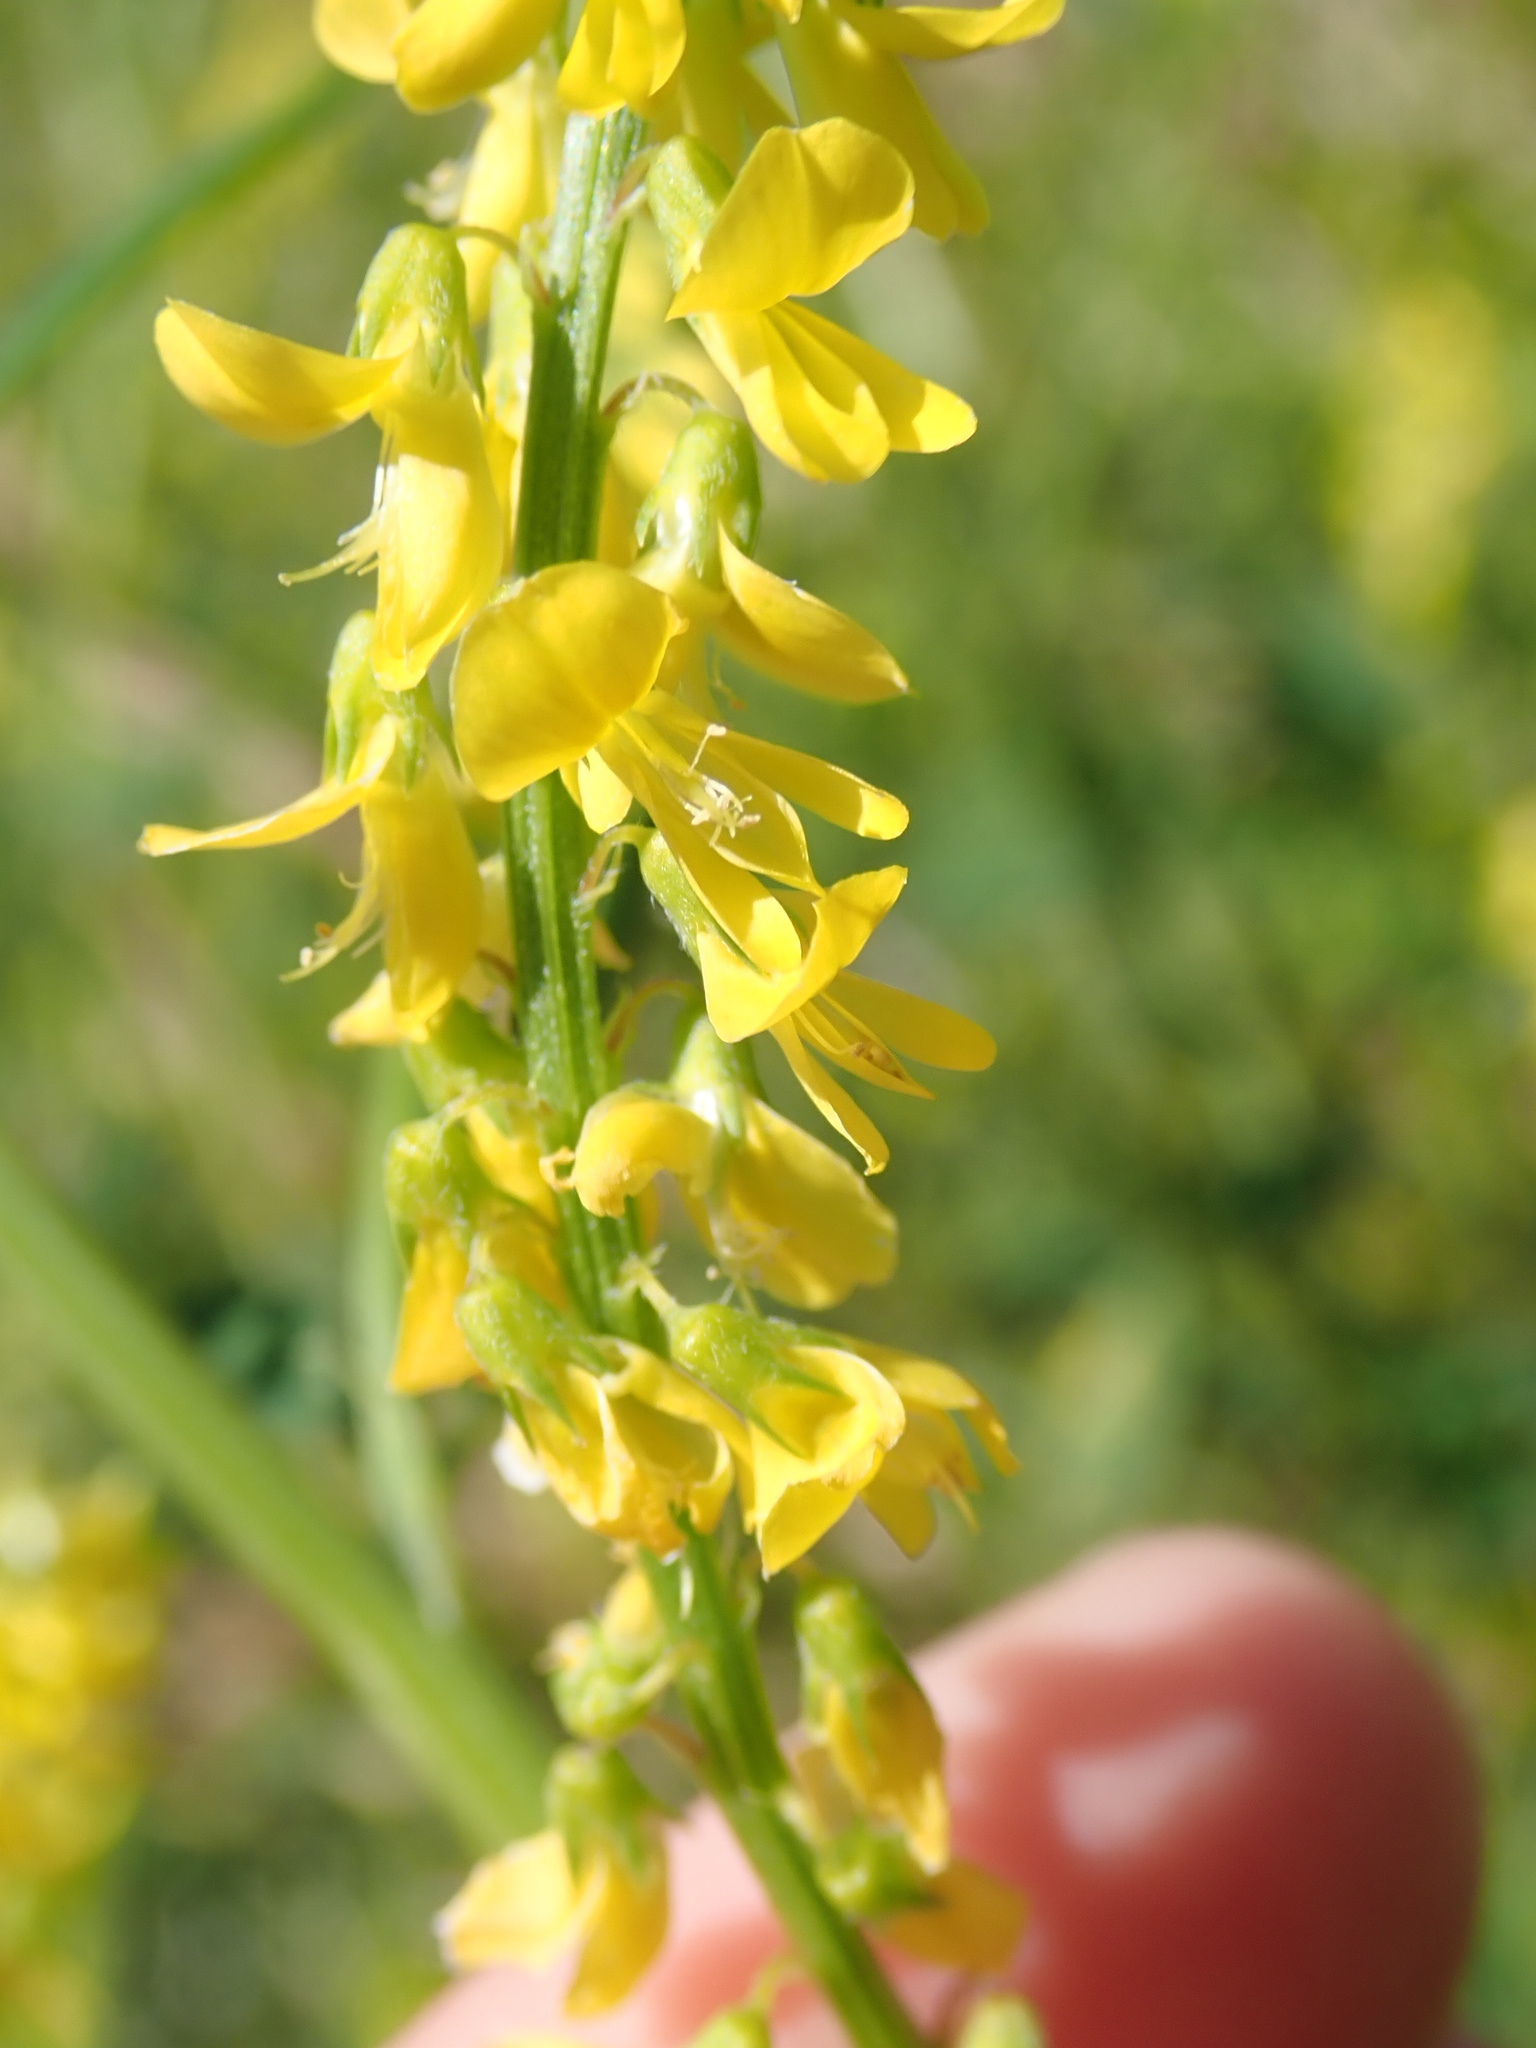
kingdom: Plantae
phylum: Tracheophyta
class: Magnoliopsida
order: Fabales
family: Fabaceae
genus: Melilotus
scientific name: Melilotus officinalis
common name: Sweetclover
